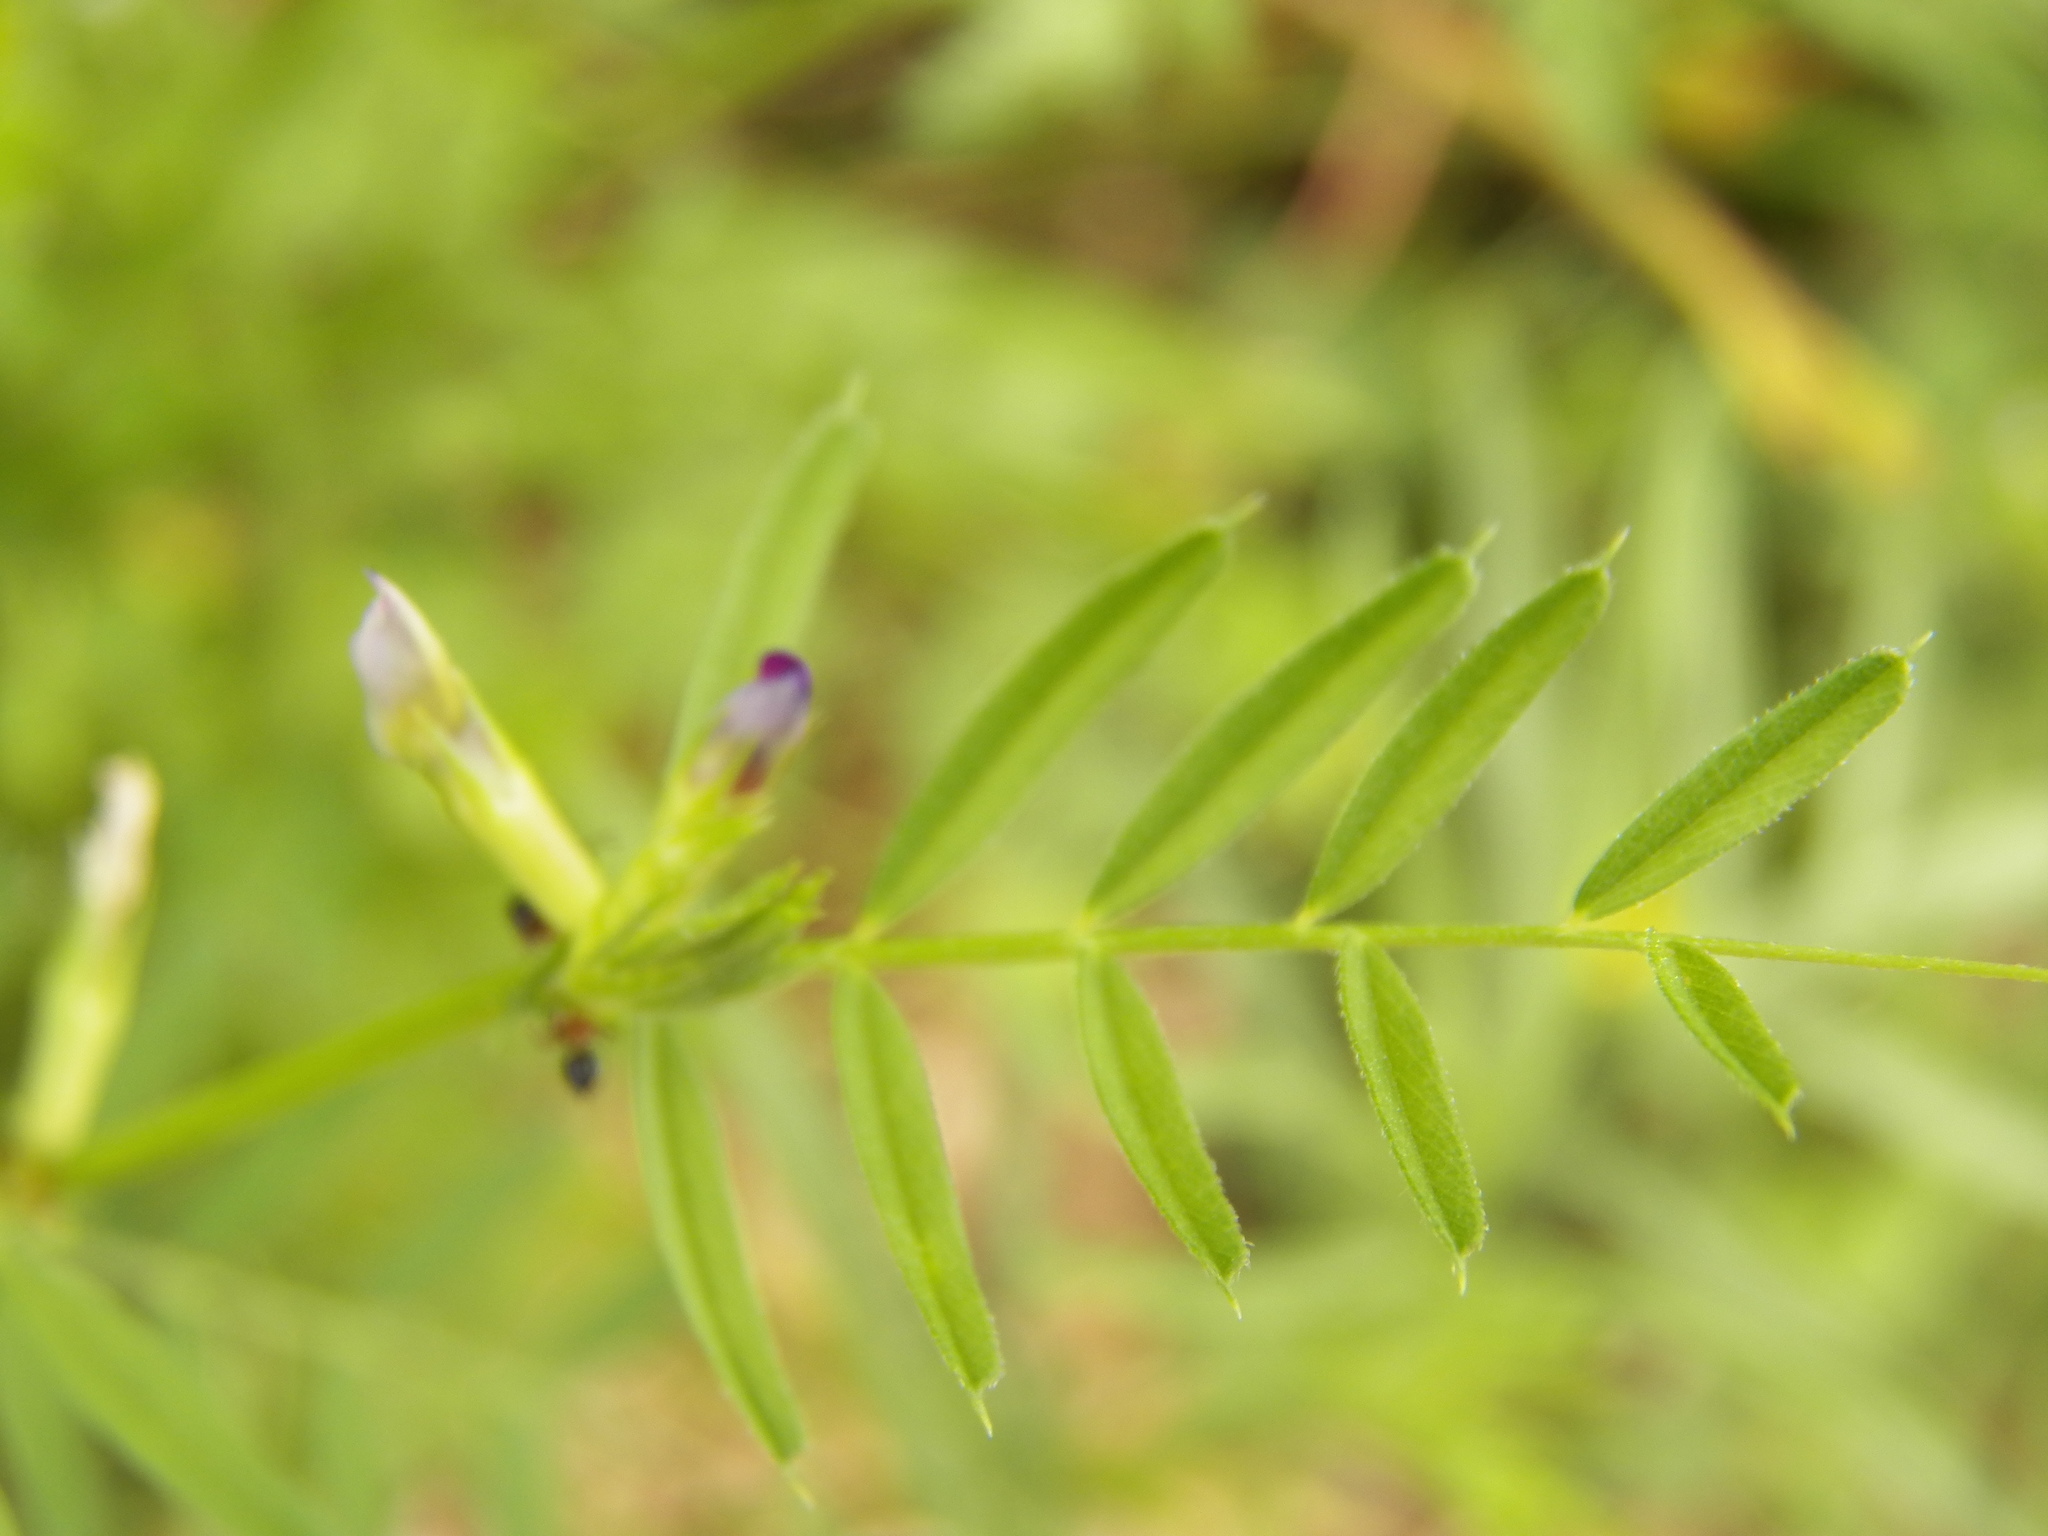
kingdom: Plantae
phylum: Tracheophyta
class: Magnoliopsida
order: Fabales
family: Fabaceae
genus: Vicia
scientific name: Vicia sativa
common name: Garden vetch
